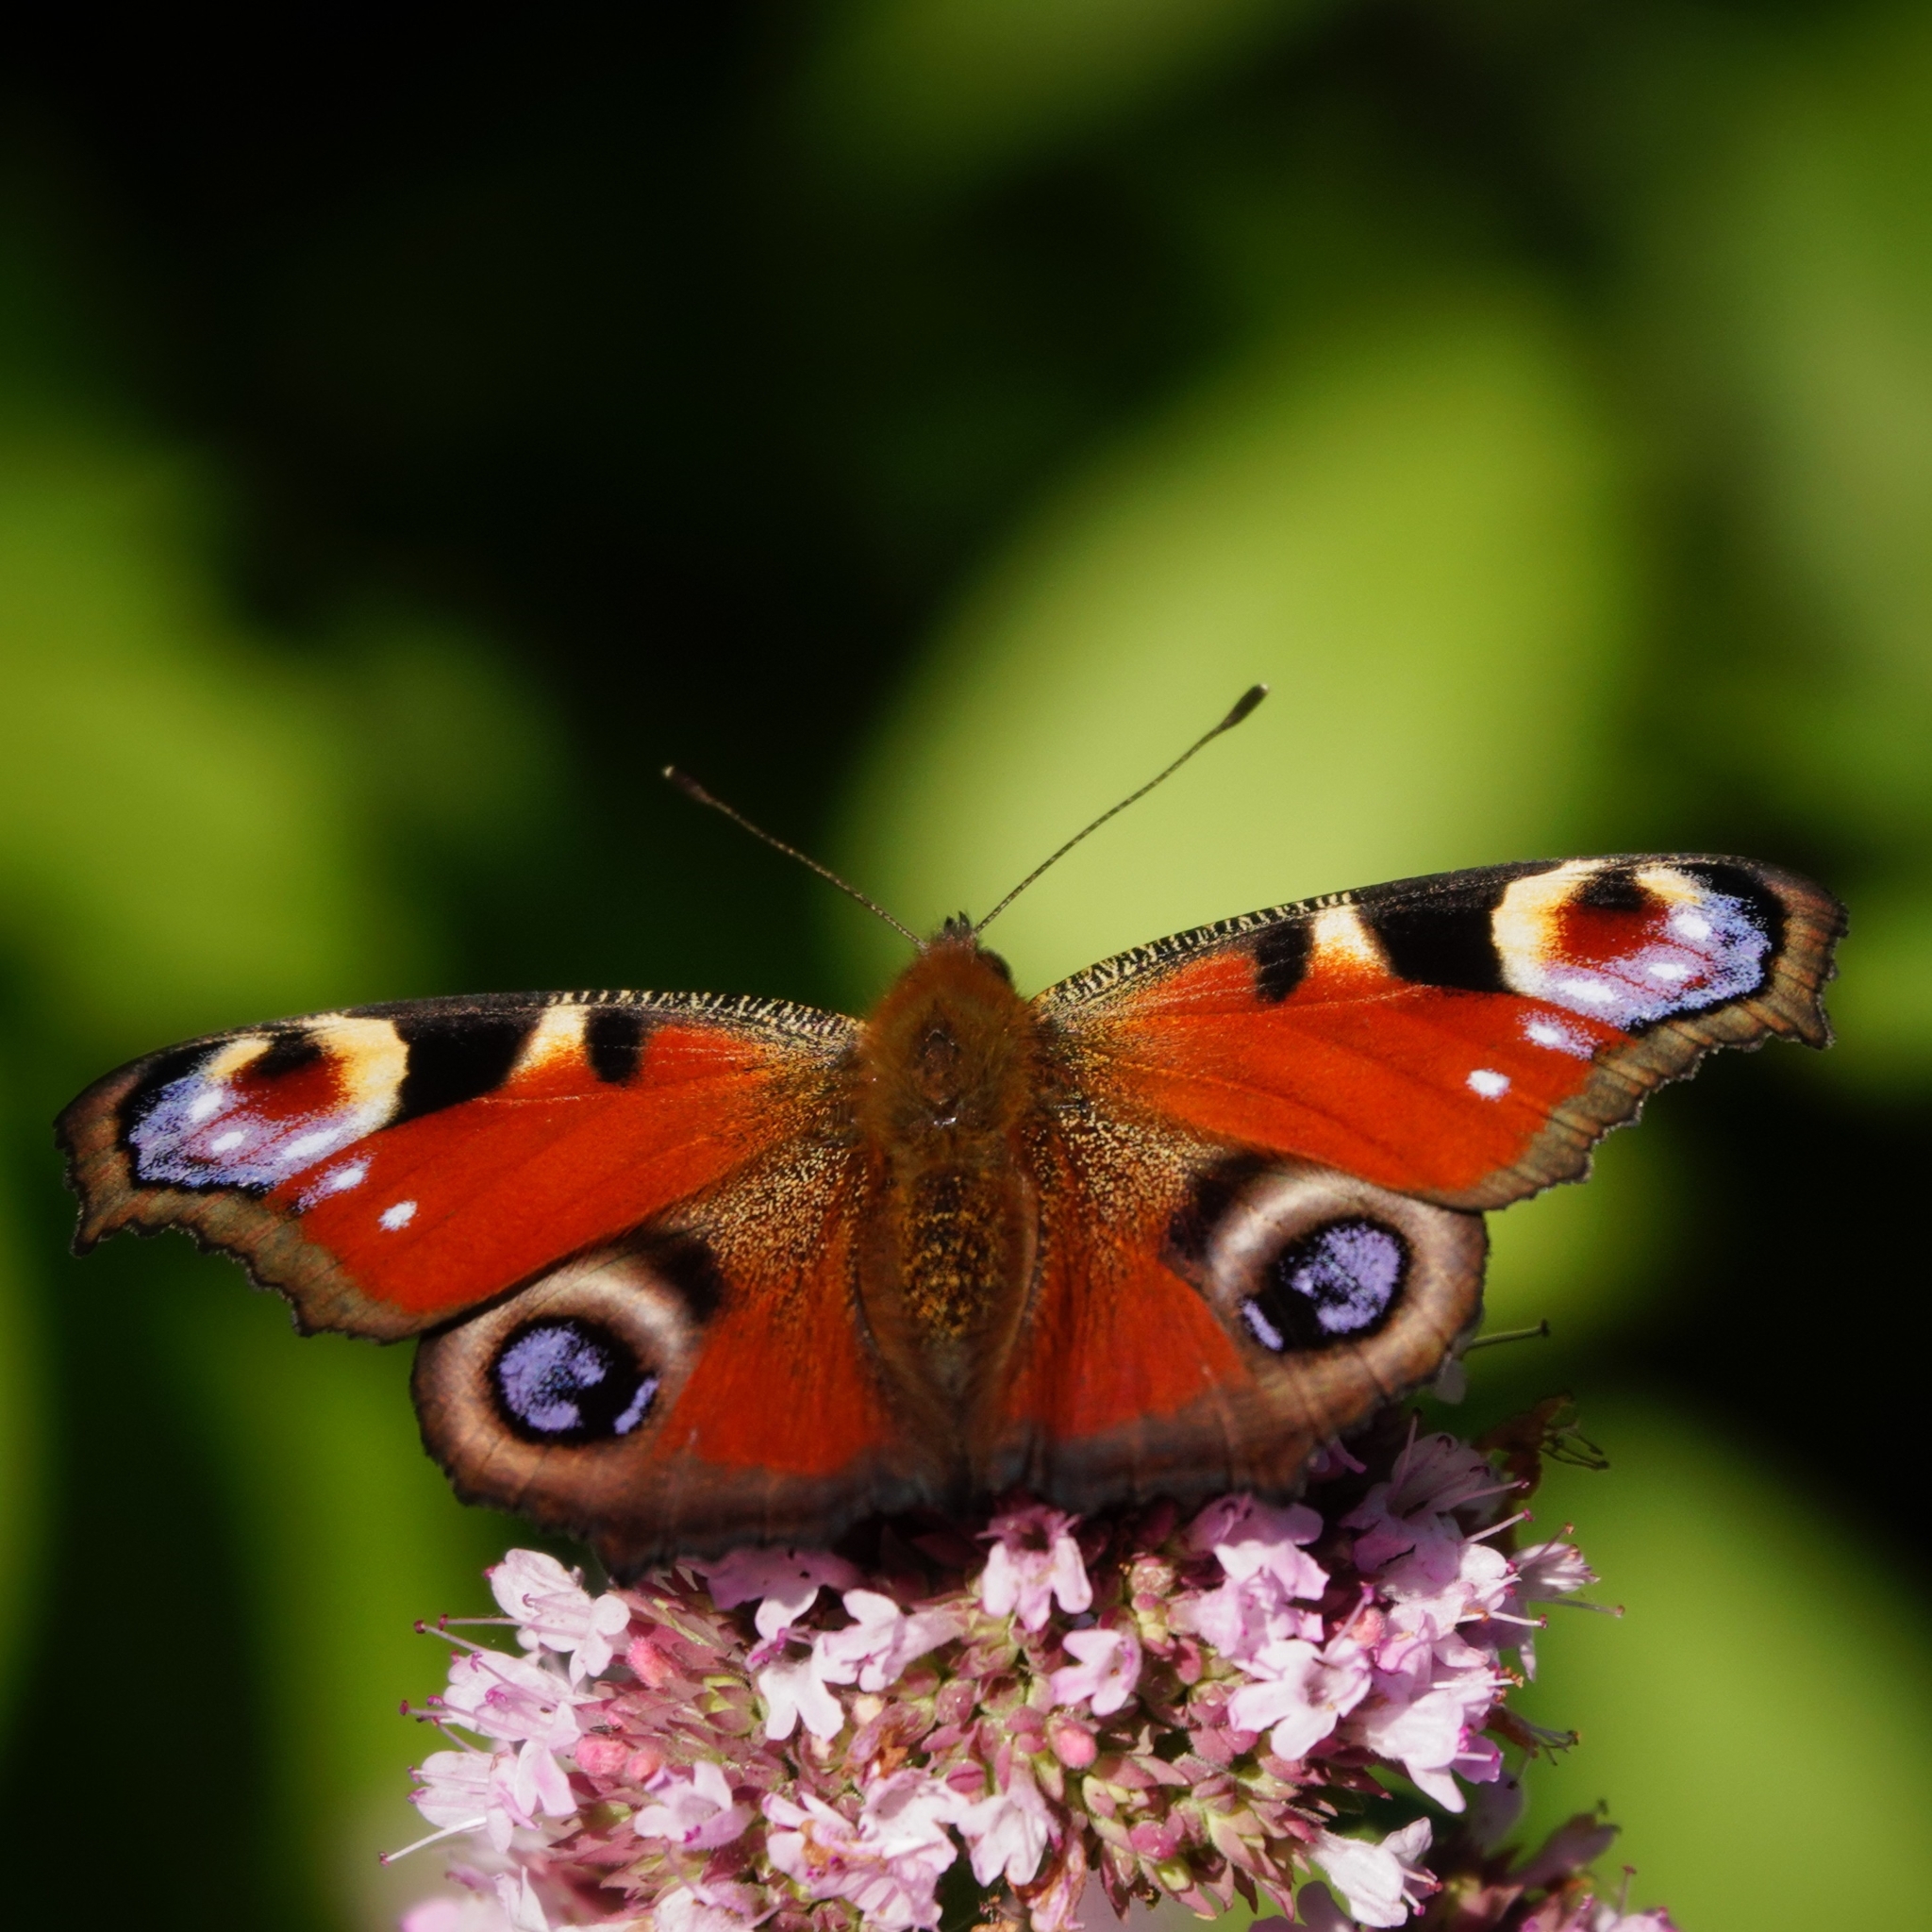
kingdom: Animalia
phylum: Arthropoda
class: Insecta
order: Lepidoptera
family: Nymphalidae
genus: Aglais
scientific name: Aglais io
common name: Peacock
